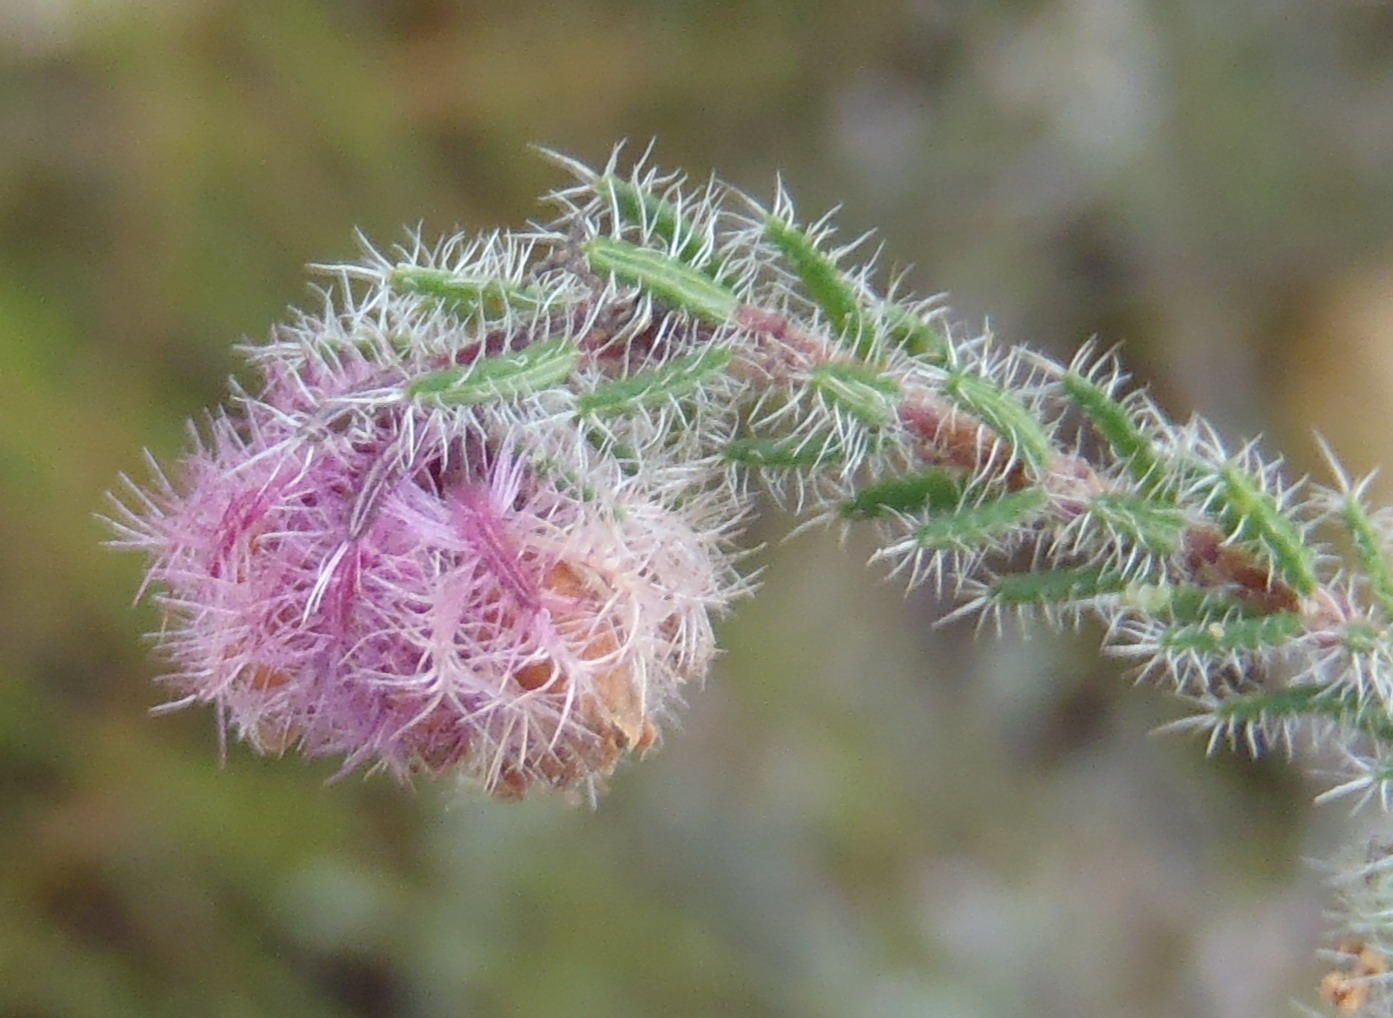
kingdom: Plantae
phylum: Tracheophyta
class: Magnoliopsida
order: Ericales
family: Ericaceae
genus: Erica
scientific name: Erica solandra
